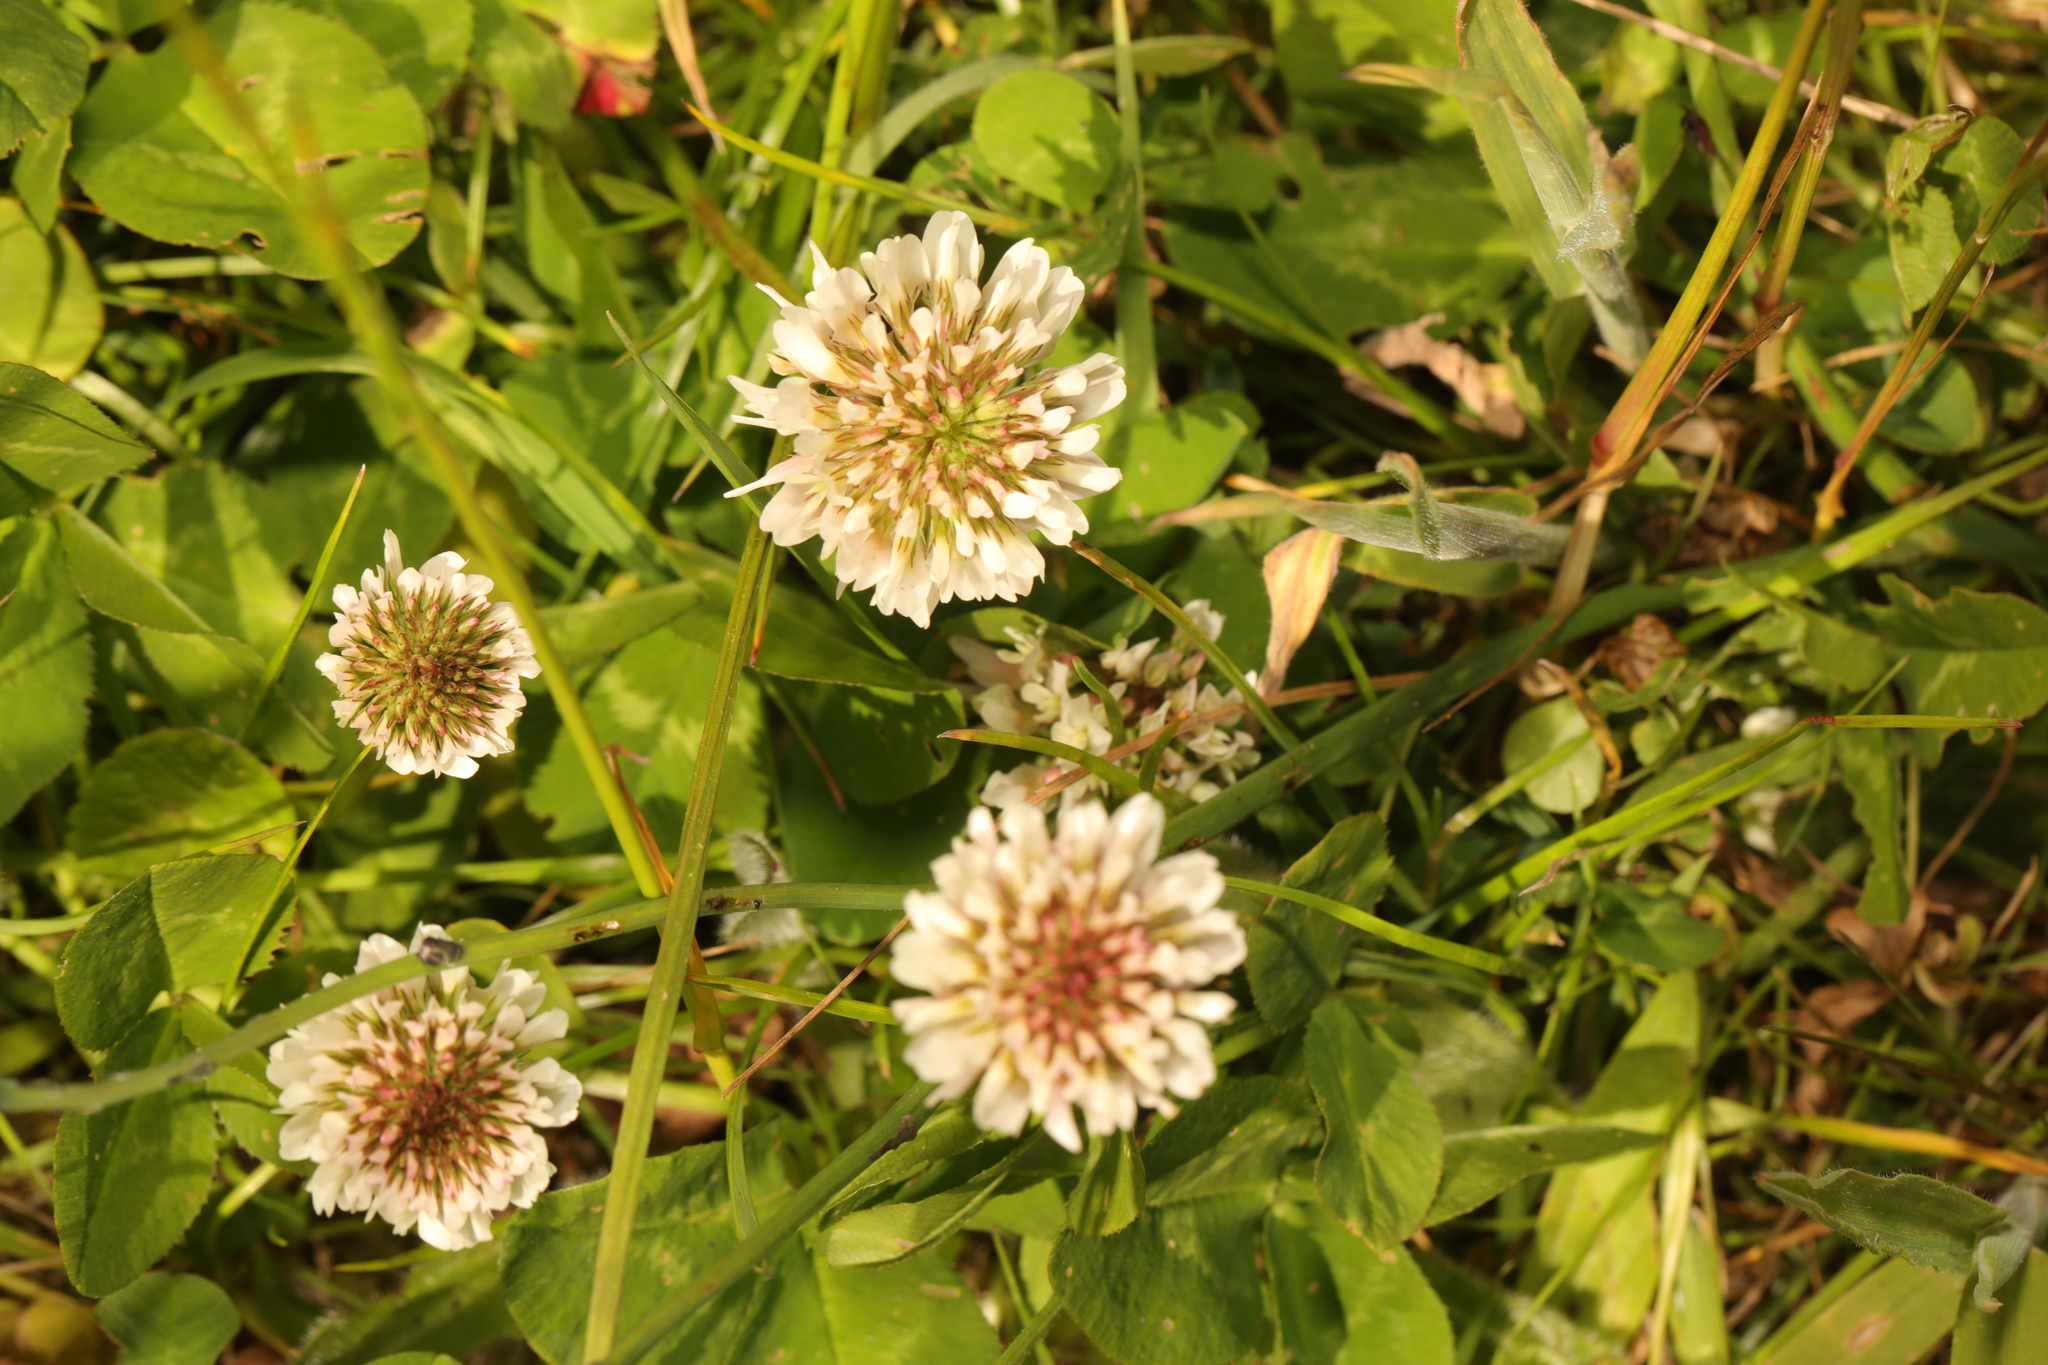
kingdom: Plantae
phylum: Tracheophyta
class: Magnoliopsida
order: Fabales
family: Fabaceae
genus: Trifolium
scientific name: Trifolium repens
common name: White clover
